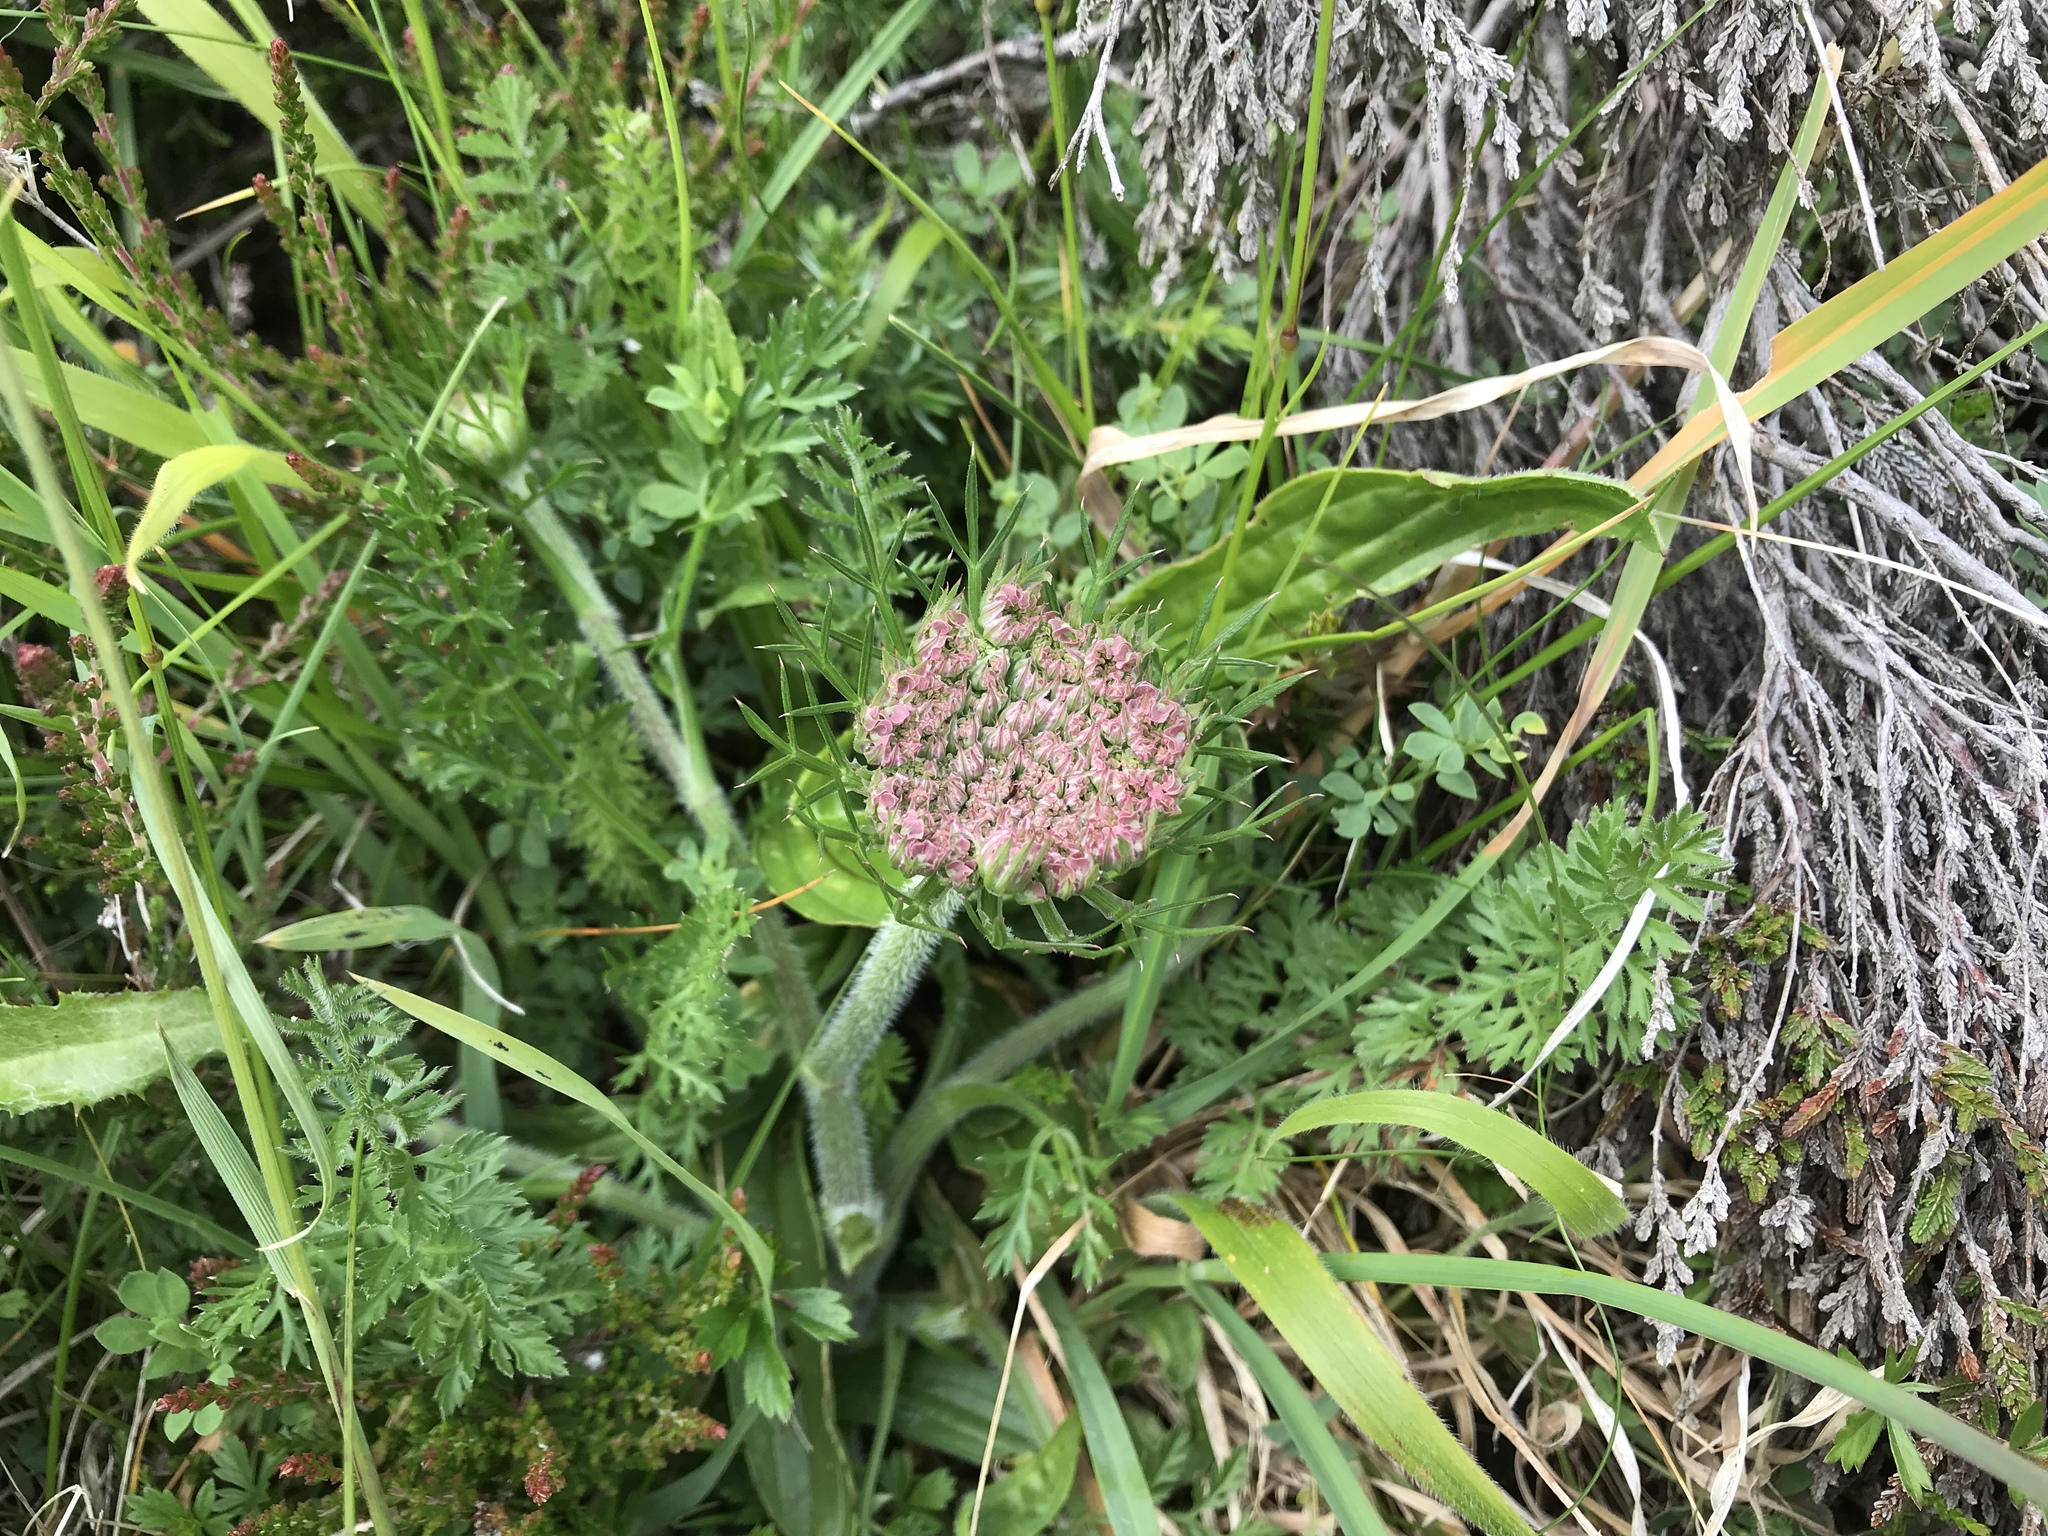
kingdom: Plantae
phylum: Tracheophyta
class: Magnoliopsida
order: Apiales
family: Apiaceae
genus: Daucus
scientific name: Daucus carota
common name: Wild carrot
